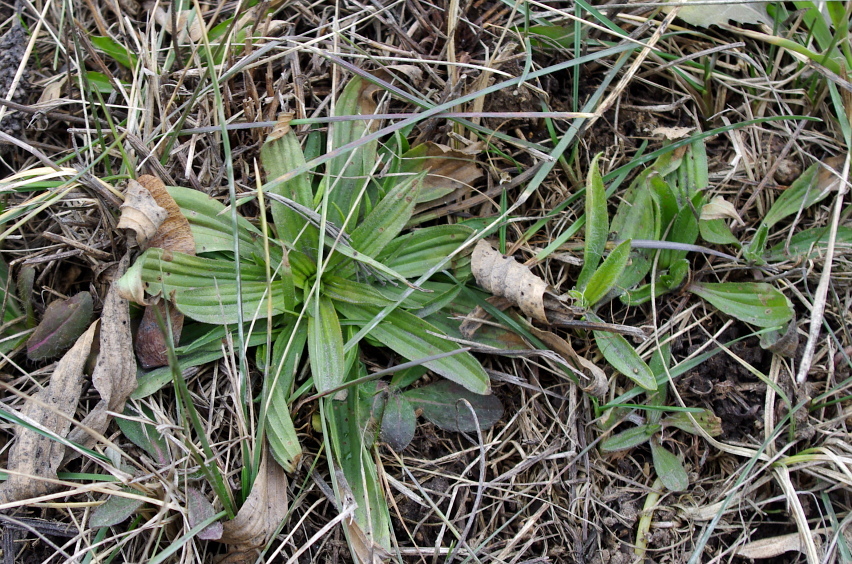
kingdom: Plantae
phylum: Tracheophyta
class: Magnoliopsida
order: Lamiales
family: Plantaginaceae
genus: Plantago
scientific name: Plantago lanceolata
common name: Ribwort plantain
